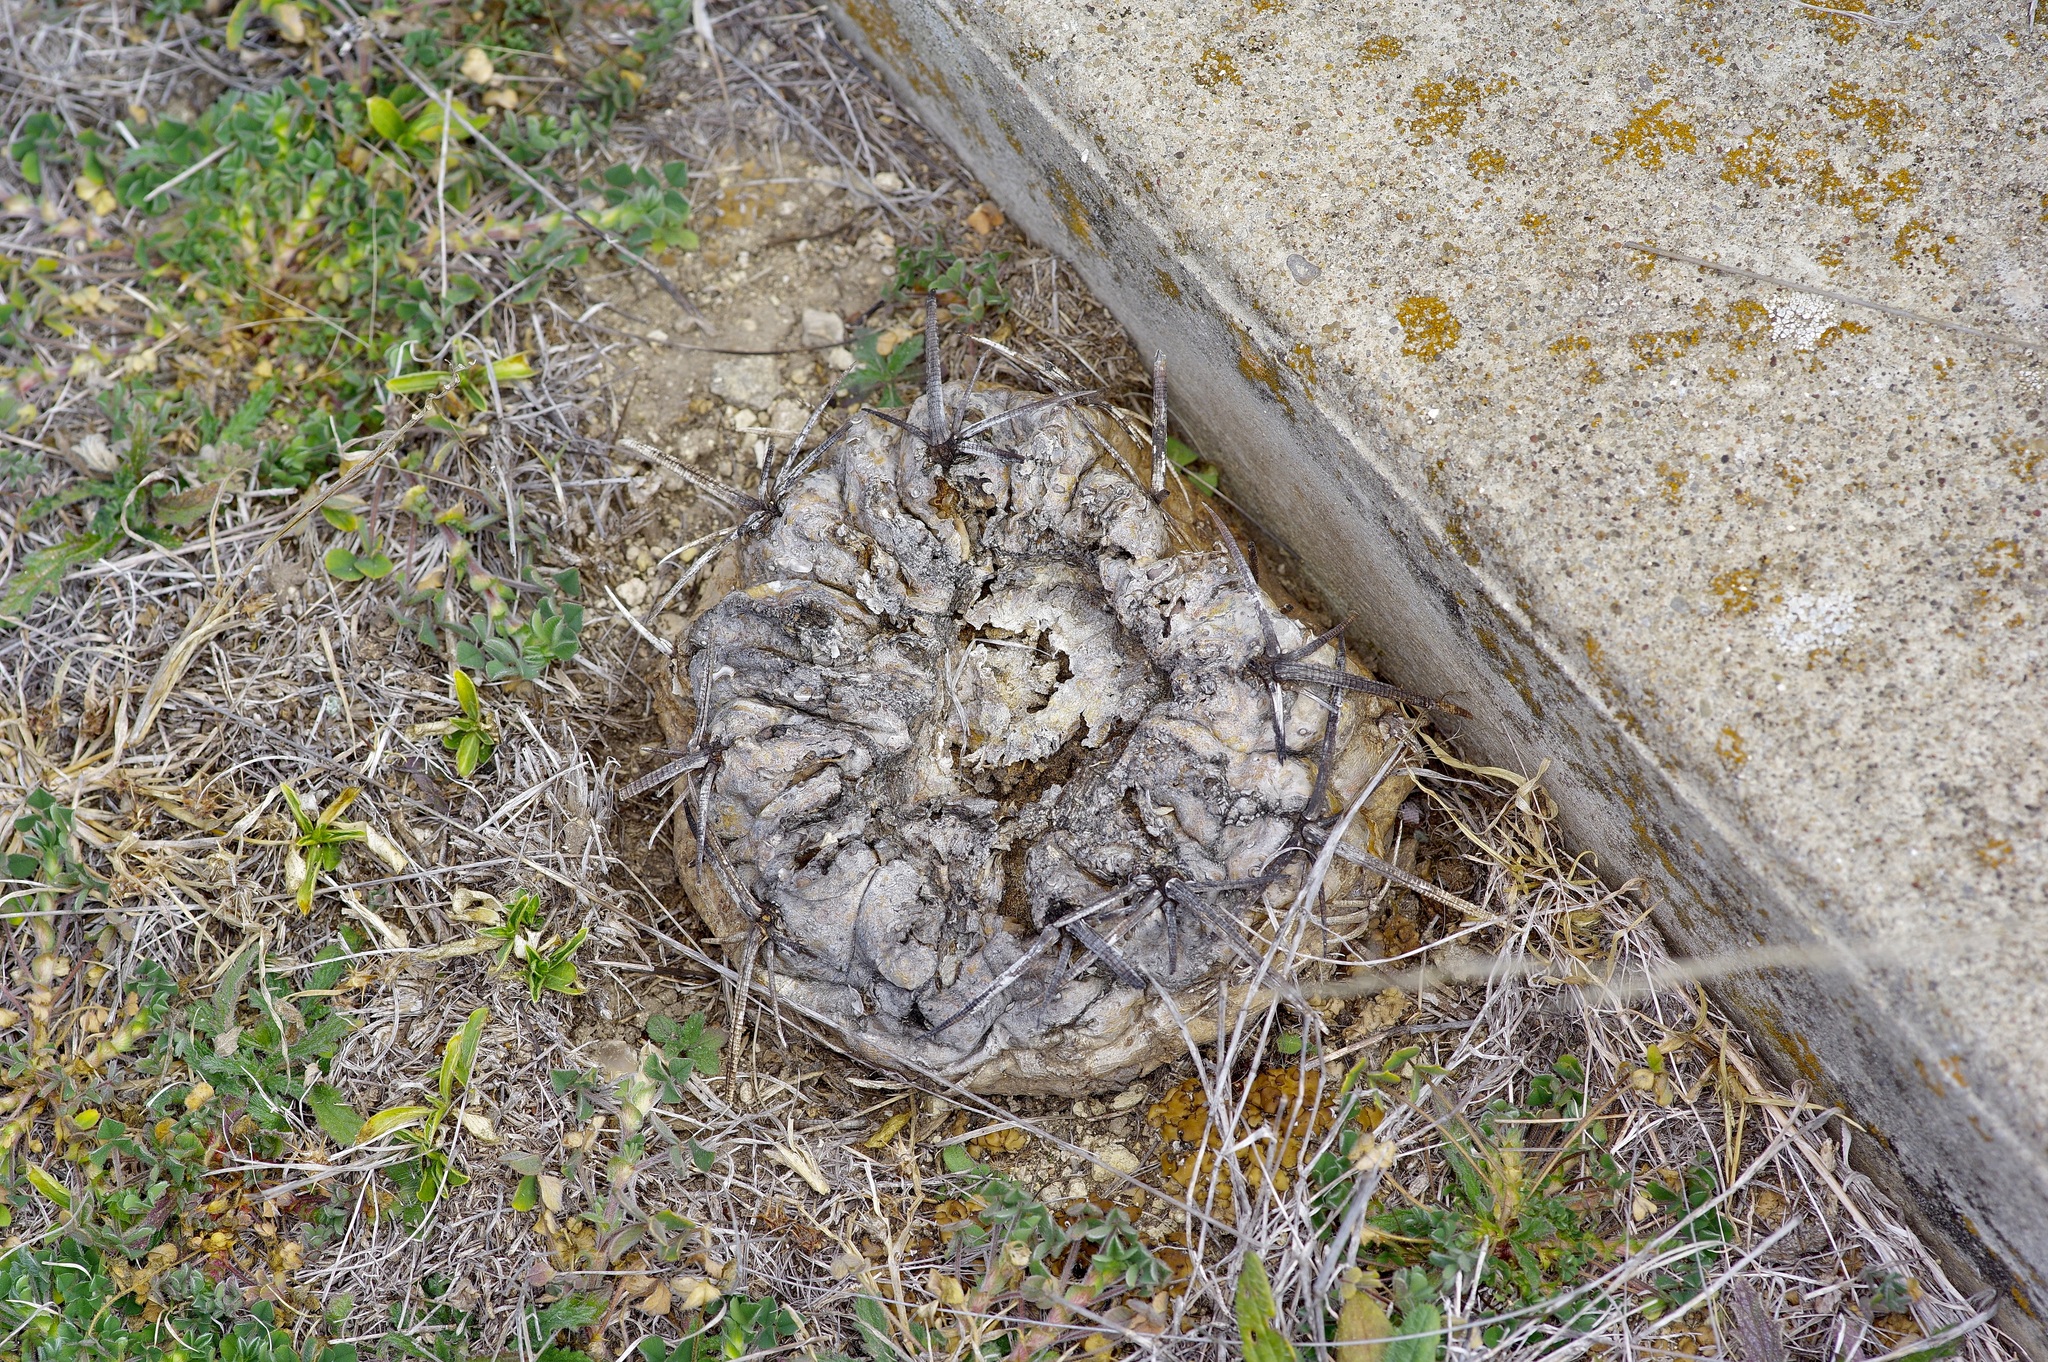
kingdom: Plantae
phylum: Tracheophyta
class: Magnoliopsida
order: Caryophyllales
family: Cactaceae
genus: Echinocactus
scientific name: Echinocactus texensis
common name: Devil's pincushion
